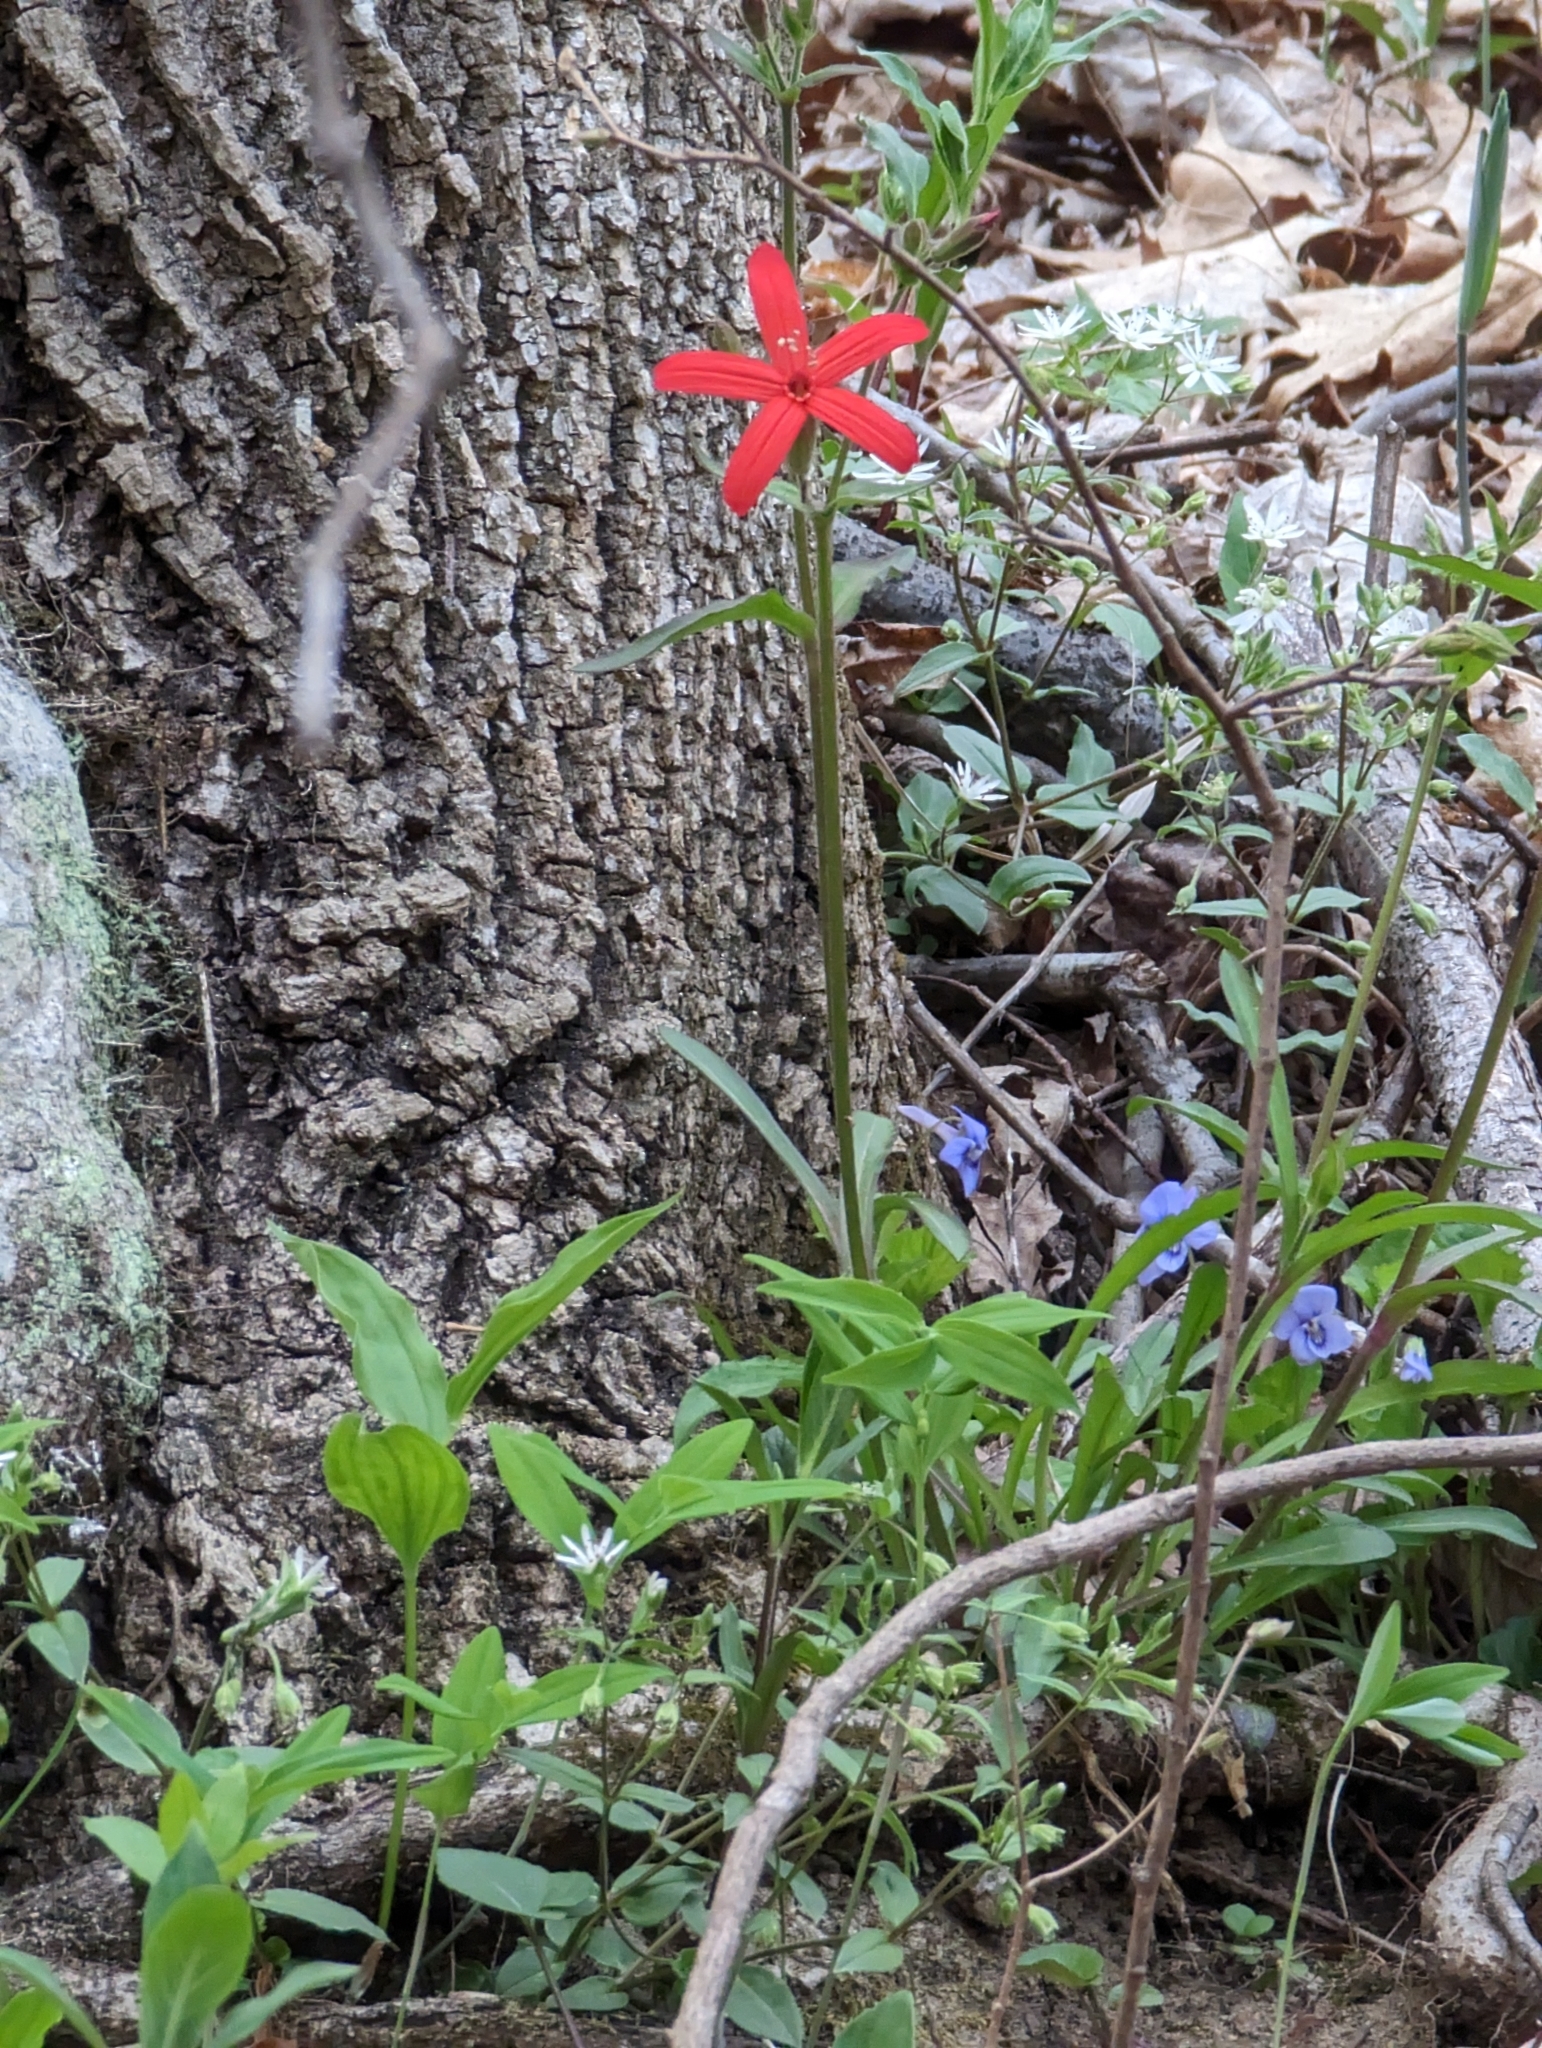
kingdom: Plantae
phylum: Tracheophyta
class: Magnoliopsida
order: Caryophyllales
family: Caryophyllaceae
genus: Silene
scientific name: Silene virginica
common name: Fire-pink
